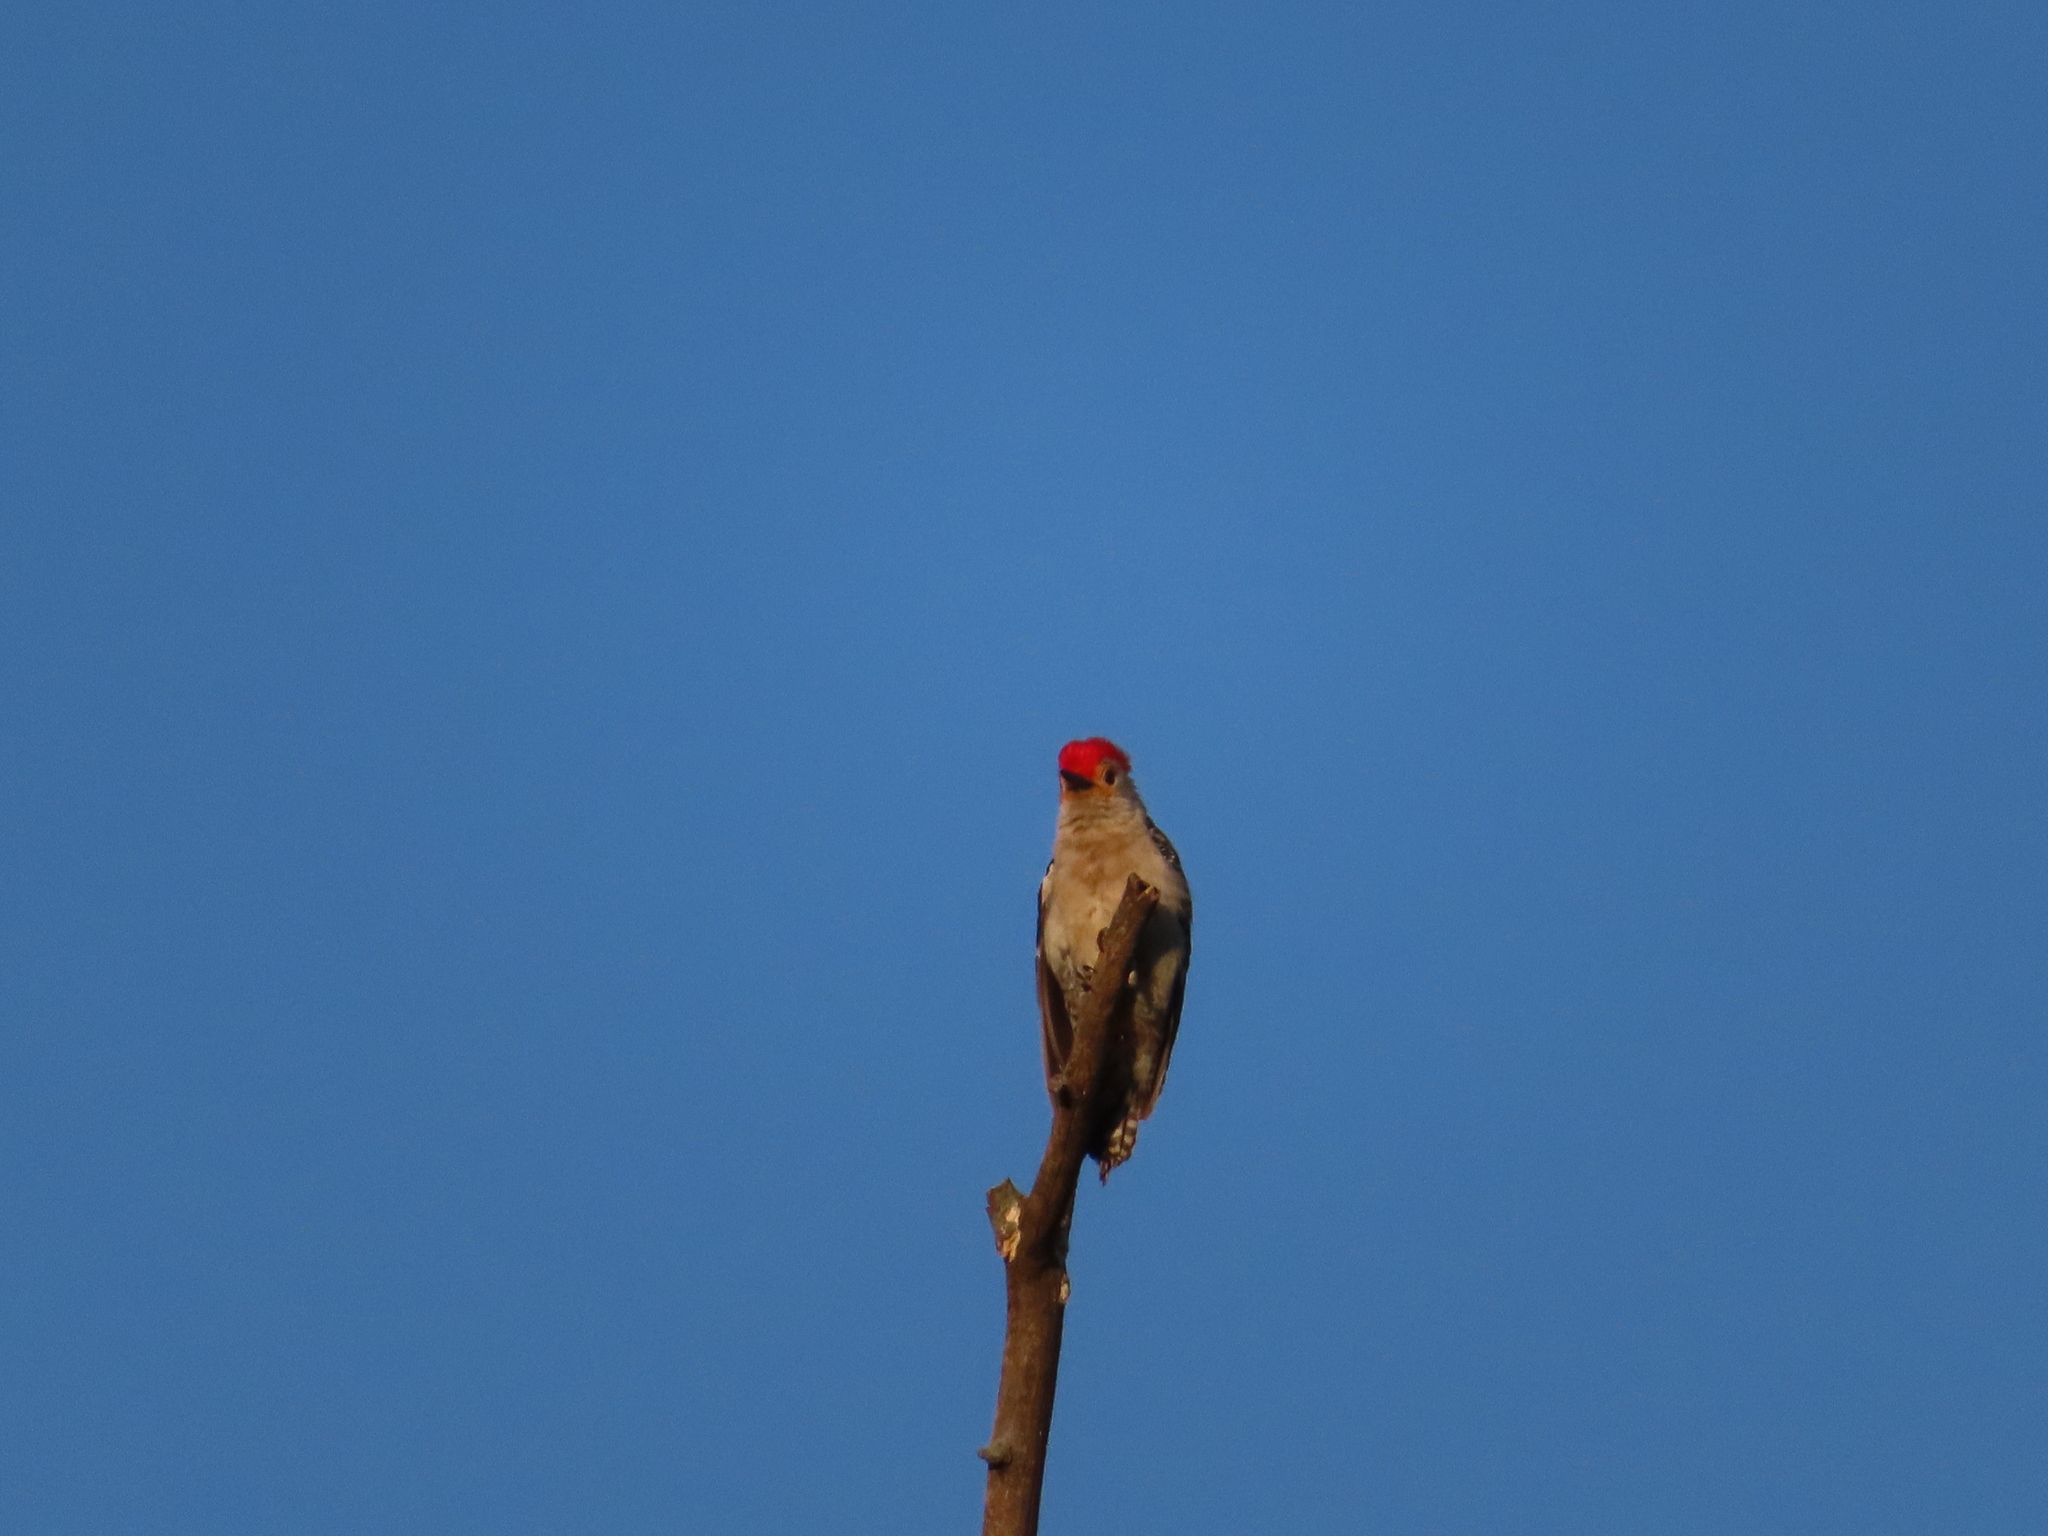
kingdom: Animalia
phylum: Chordata
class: Aves
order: Piciformes
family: Picidae
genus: Melanerpes
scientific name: Melanerpes carolinus
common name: Red-bellied woodpecker
